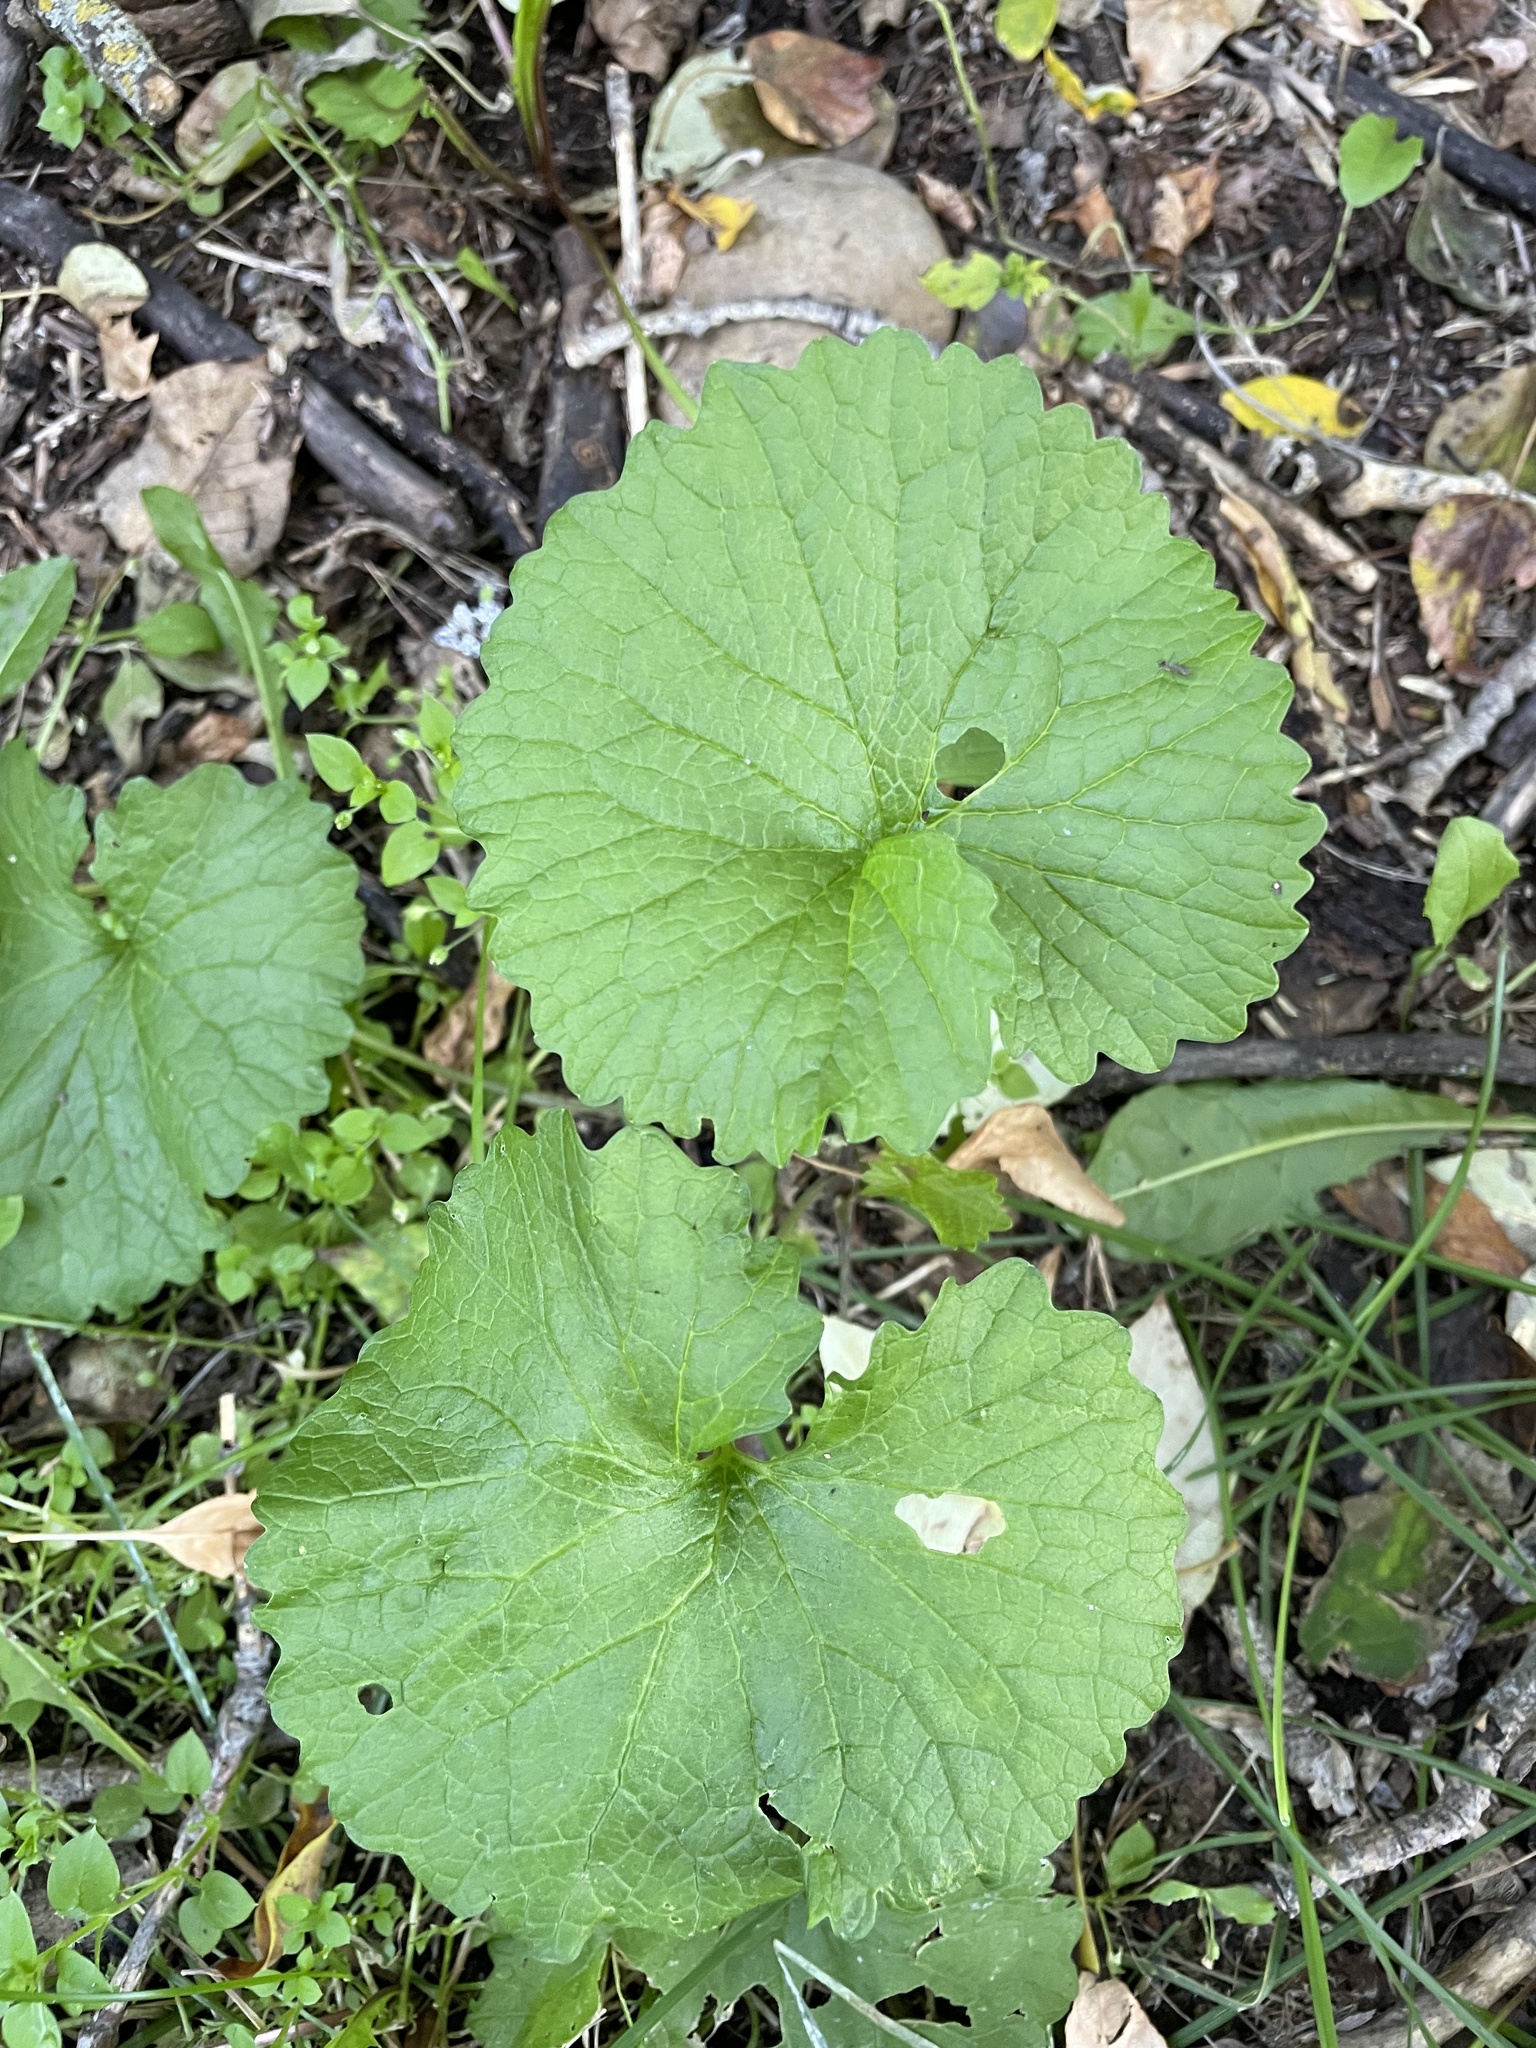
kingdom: Plantae
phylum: Tracheophyta
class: Magnoliopsida
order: Brassicales
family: Brassicaceae
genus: Alliaria
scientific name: Alliaria petiolata
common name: Garlic mustard
